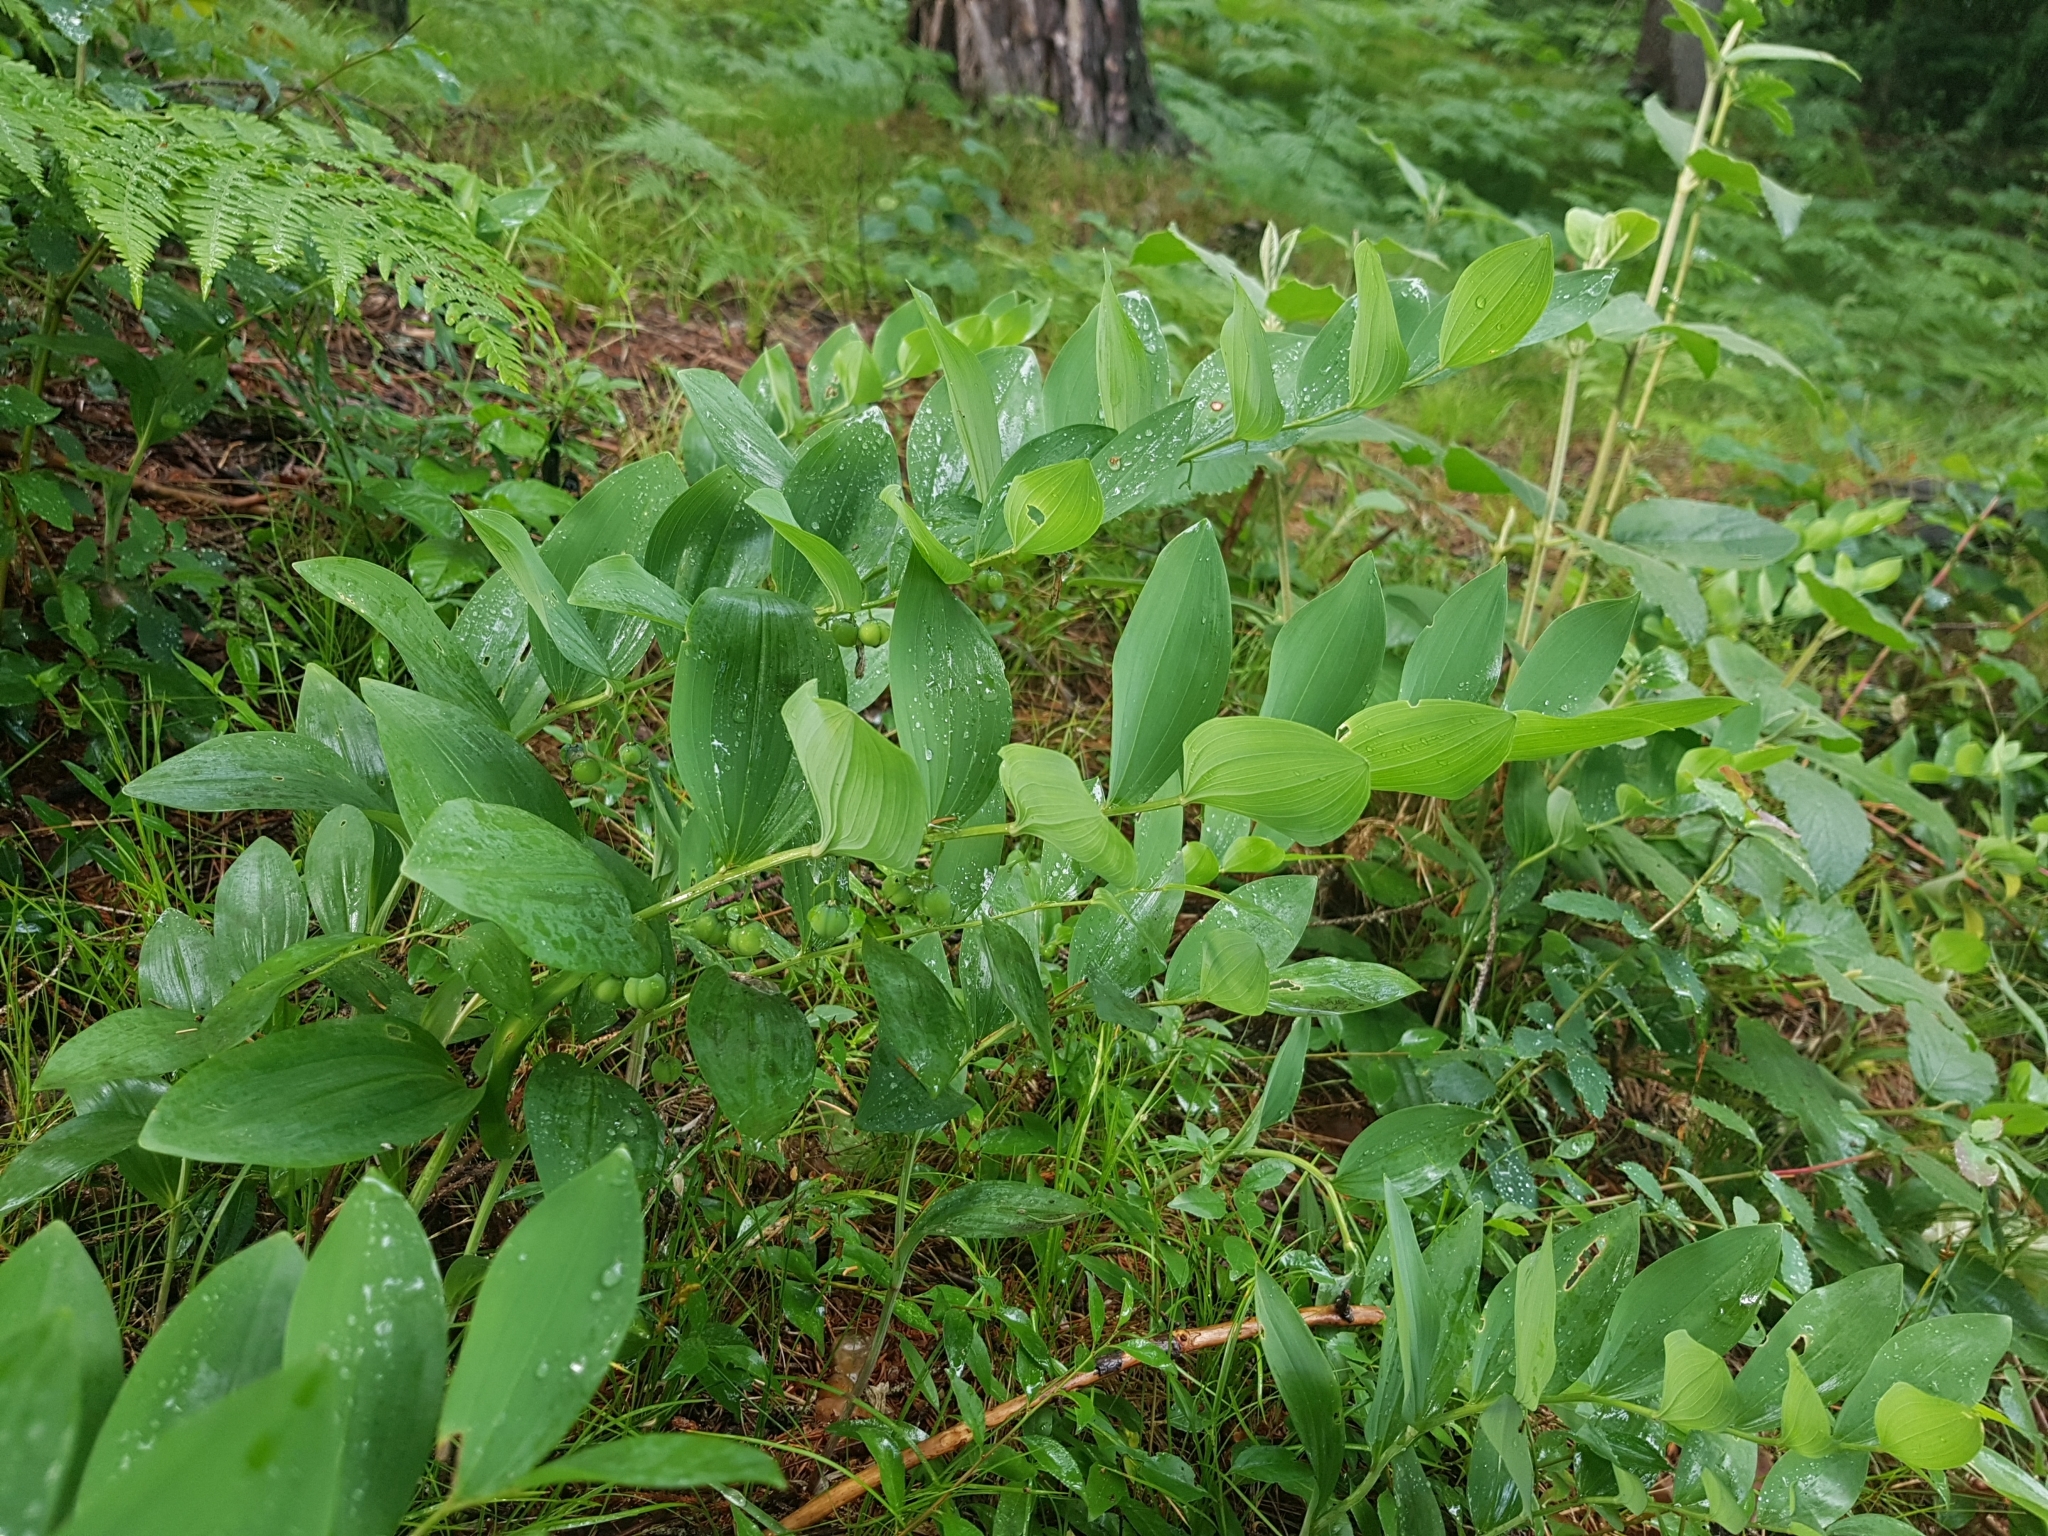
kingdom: Plantae
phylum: Tracheophyta
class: Liliopsida
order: Asparagales
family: Asparagaceae
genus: Polygonatum
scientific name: Polygonatum odoratum
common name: Angular solomon's-seal
